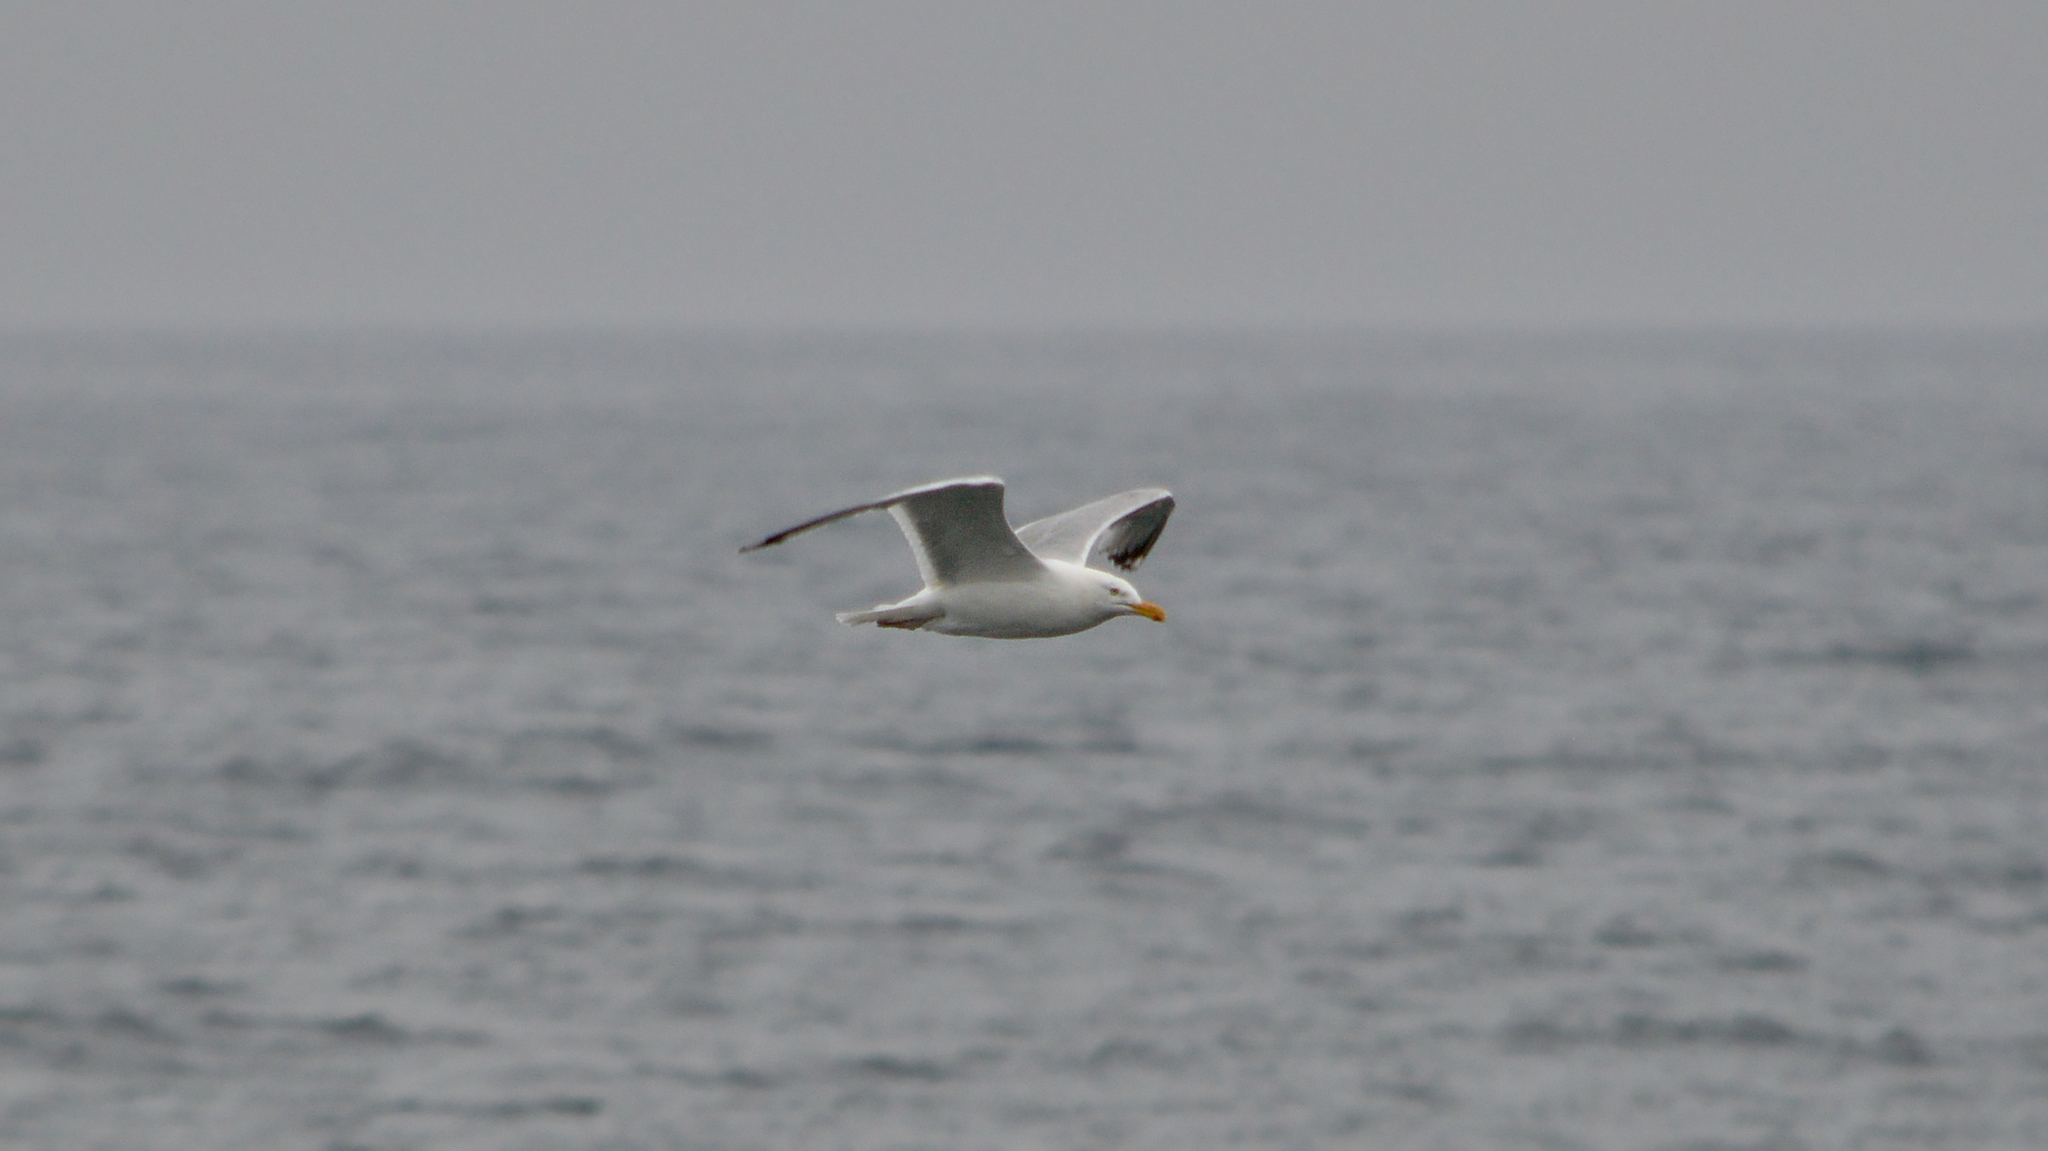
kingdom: Animalia
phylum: Chordata
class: Aves
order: Charadriiformes
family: Laridae
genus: Larus
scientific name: Larus argentatus
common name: Herring gull
